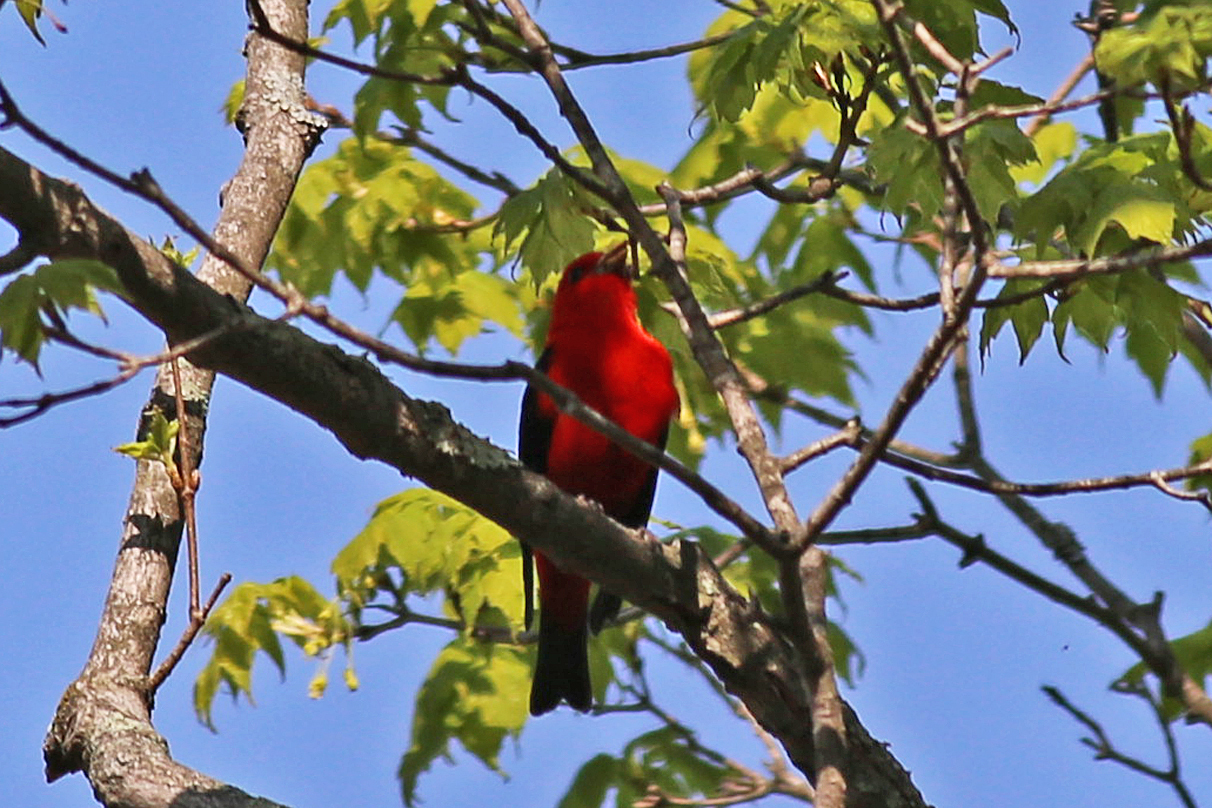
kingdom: Animalia
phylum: Chordata
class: Aves
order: Passeriformes
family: Cardinalidae
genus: Piranga
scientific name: Piranga olivacea
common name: Scarlet tanager
